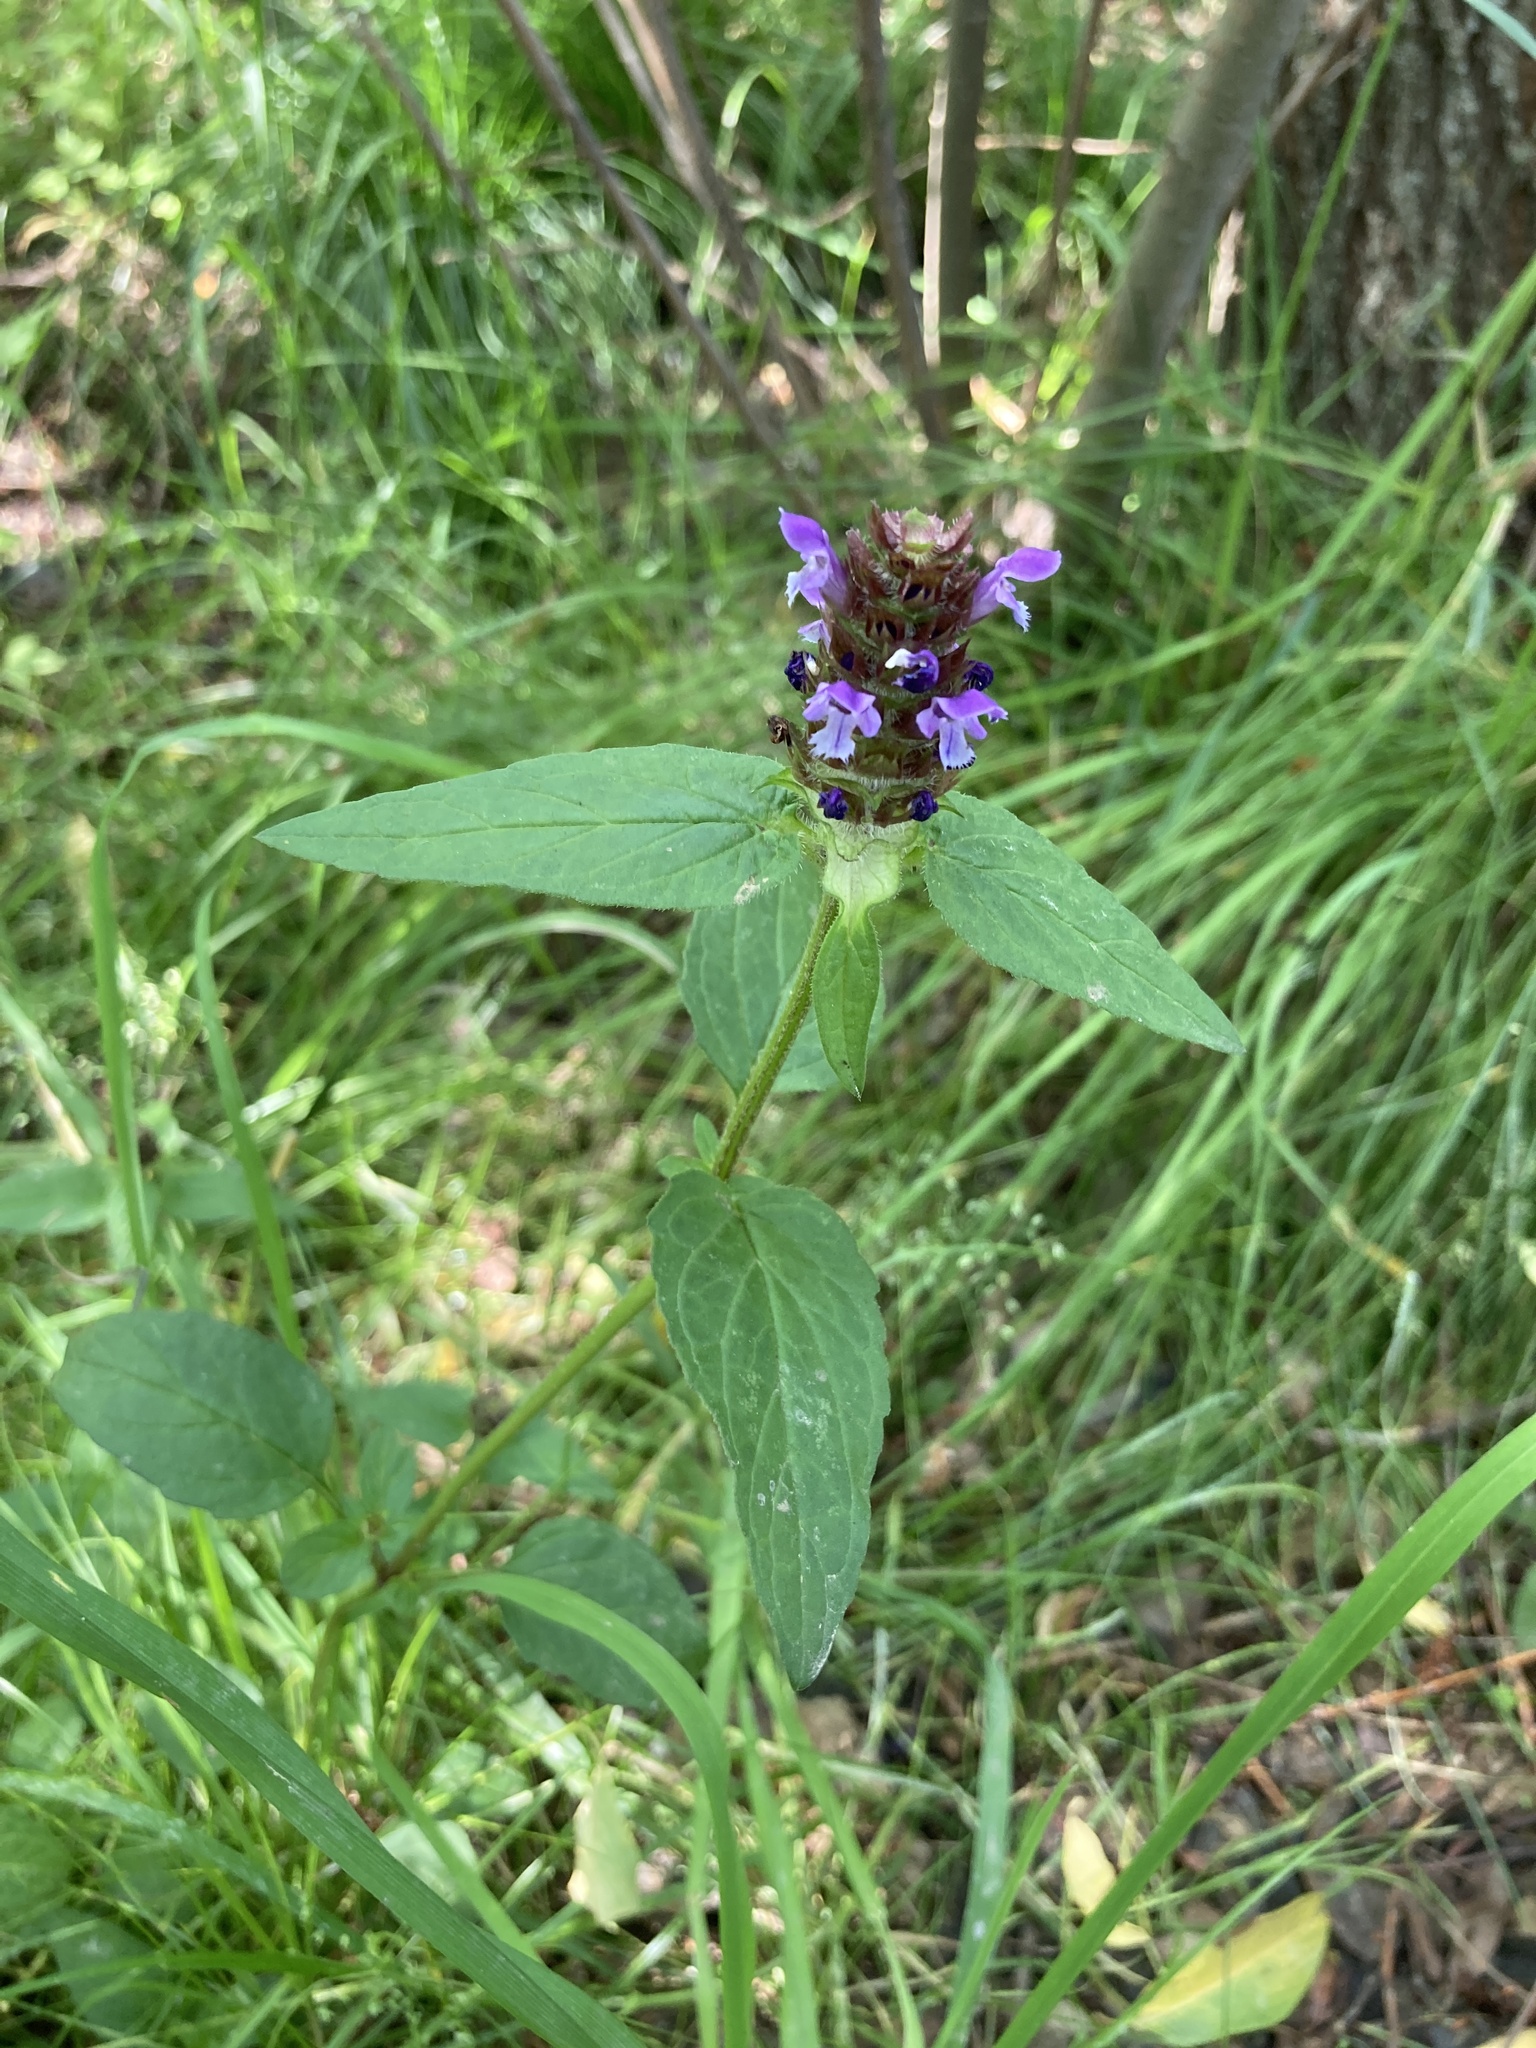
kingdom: Plantae
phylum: Tracheophyta
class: Magnoliopsida
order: Lamiales
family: Lamiaceae
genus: Prunella
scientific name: Prunella vulgaris
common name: Heal-all
